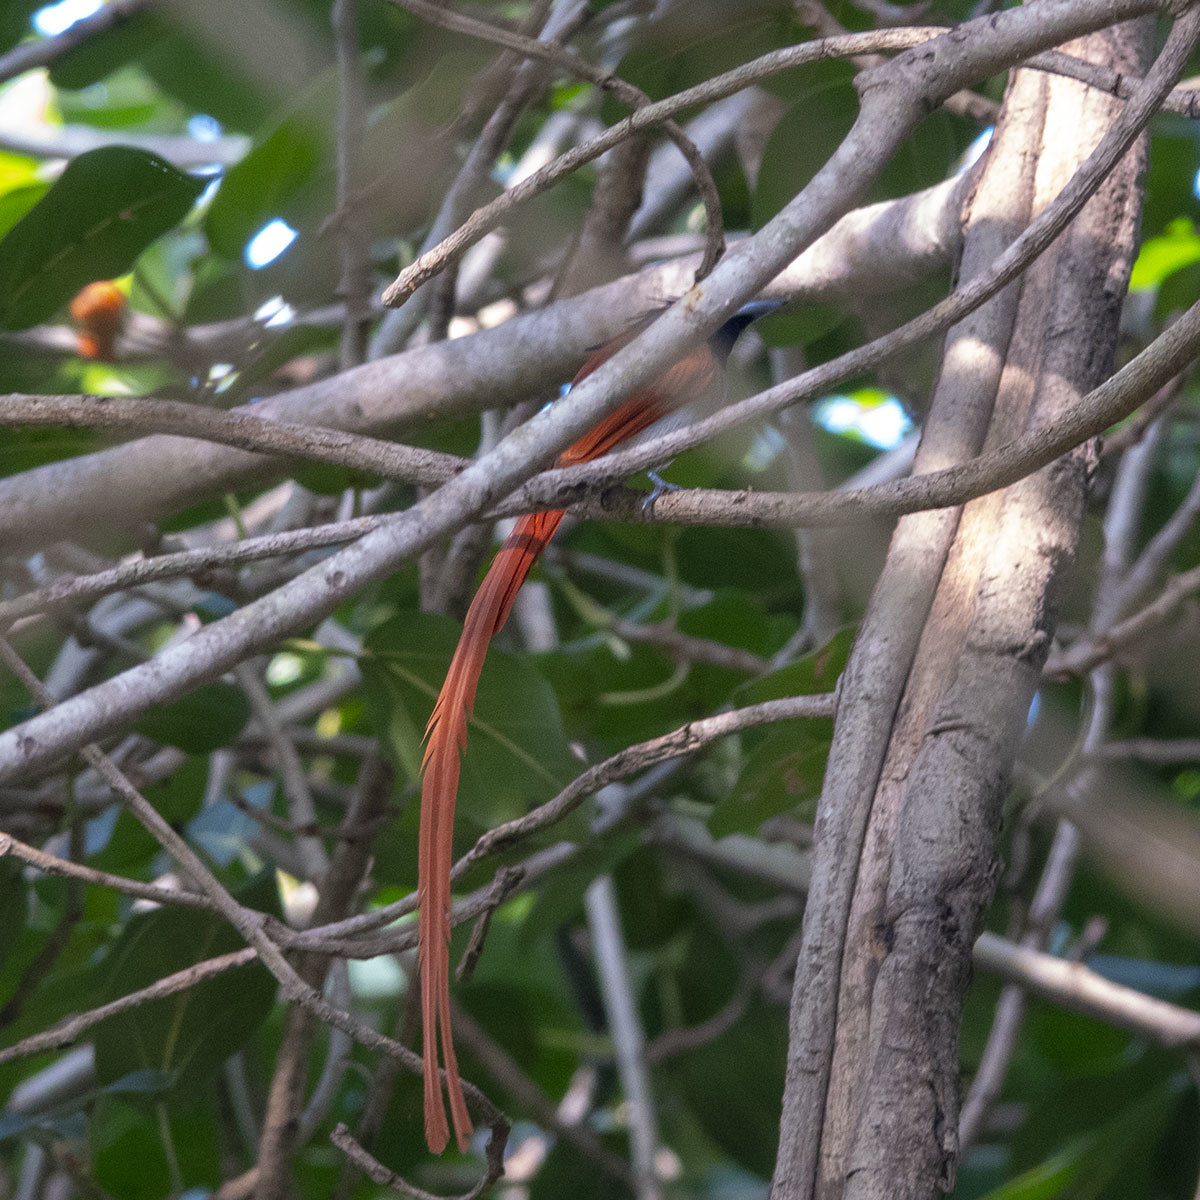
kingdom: Animalia
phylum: Chordata
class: Aves
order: Passeriformes
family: Monarchidae
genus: Terpsiphone
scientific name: Terpsiphone paradisi
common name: Indian paradise flycatcher
